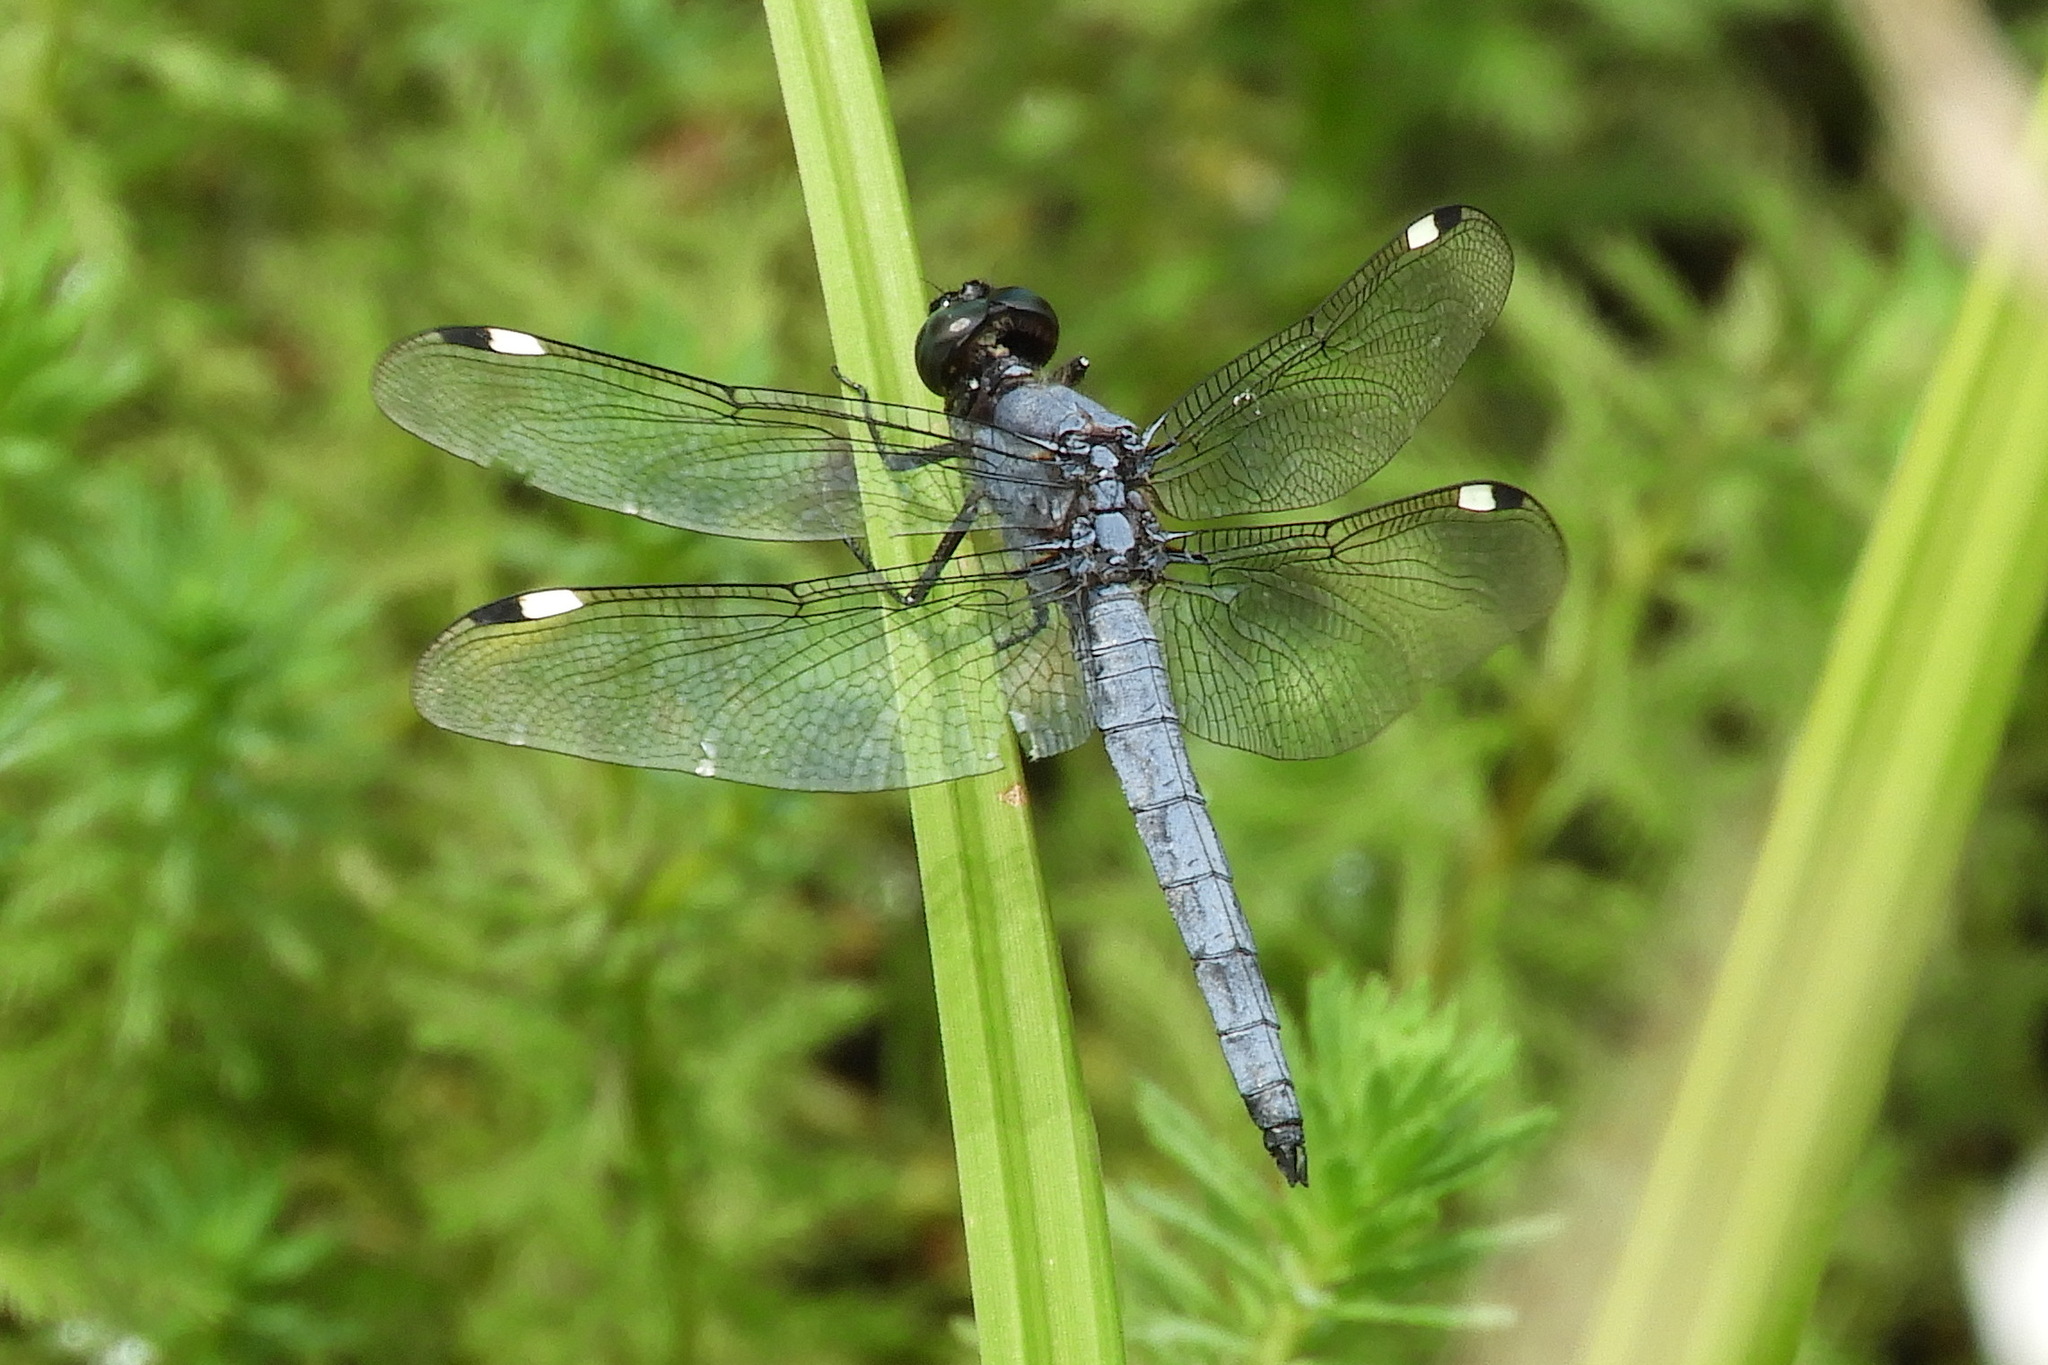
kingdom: Animalia
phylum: Arthropoda
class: Insecta
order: Odonata
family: Libellulidae
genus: Libellula
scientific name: Libellula cyanea
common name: Spangled skimmer
